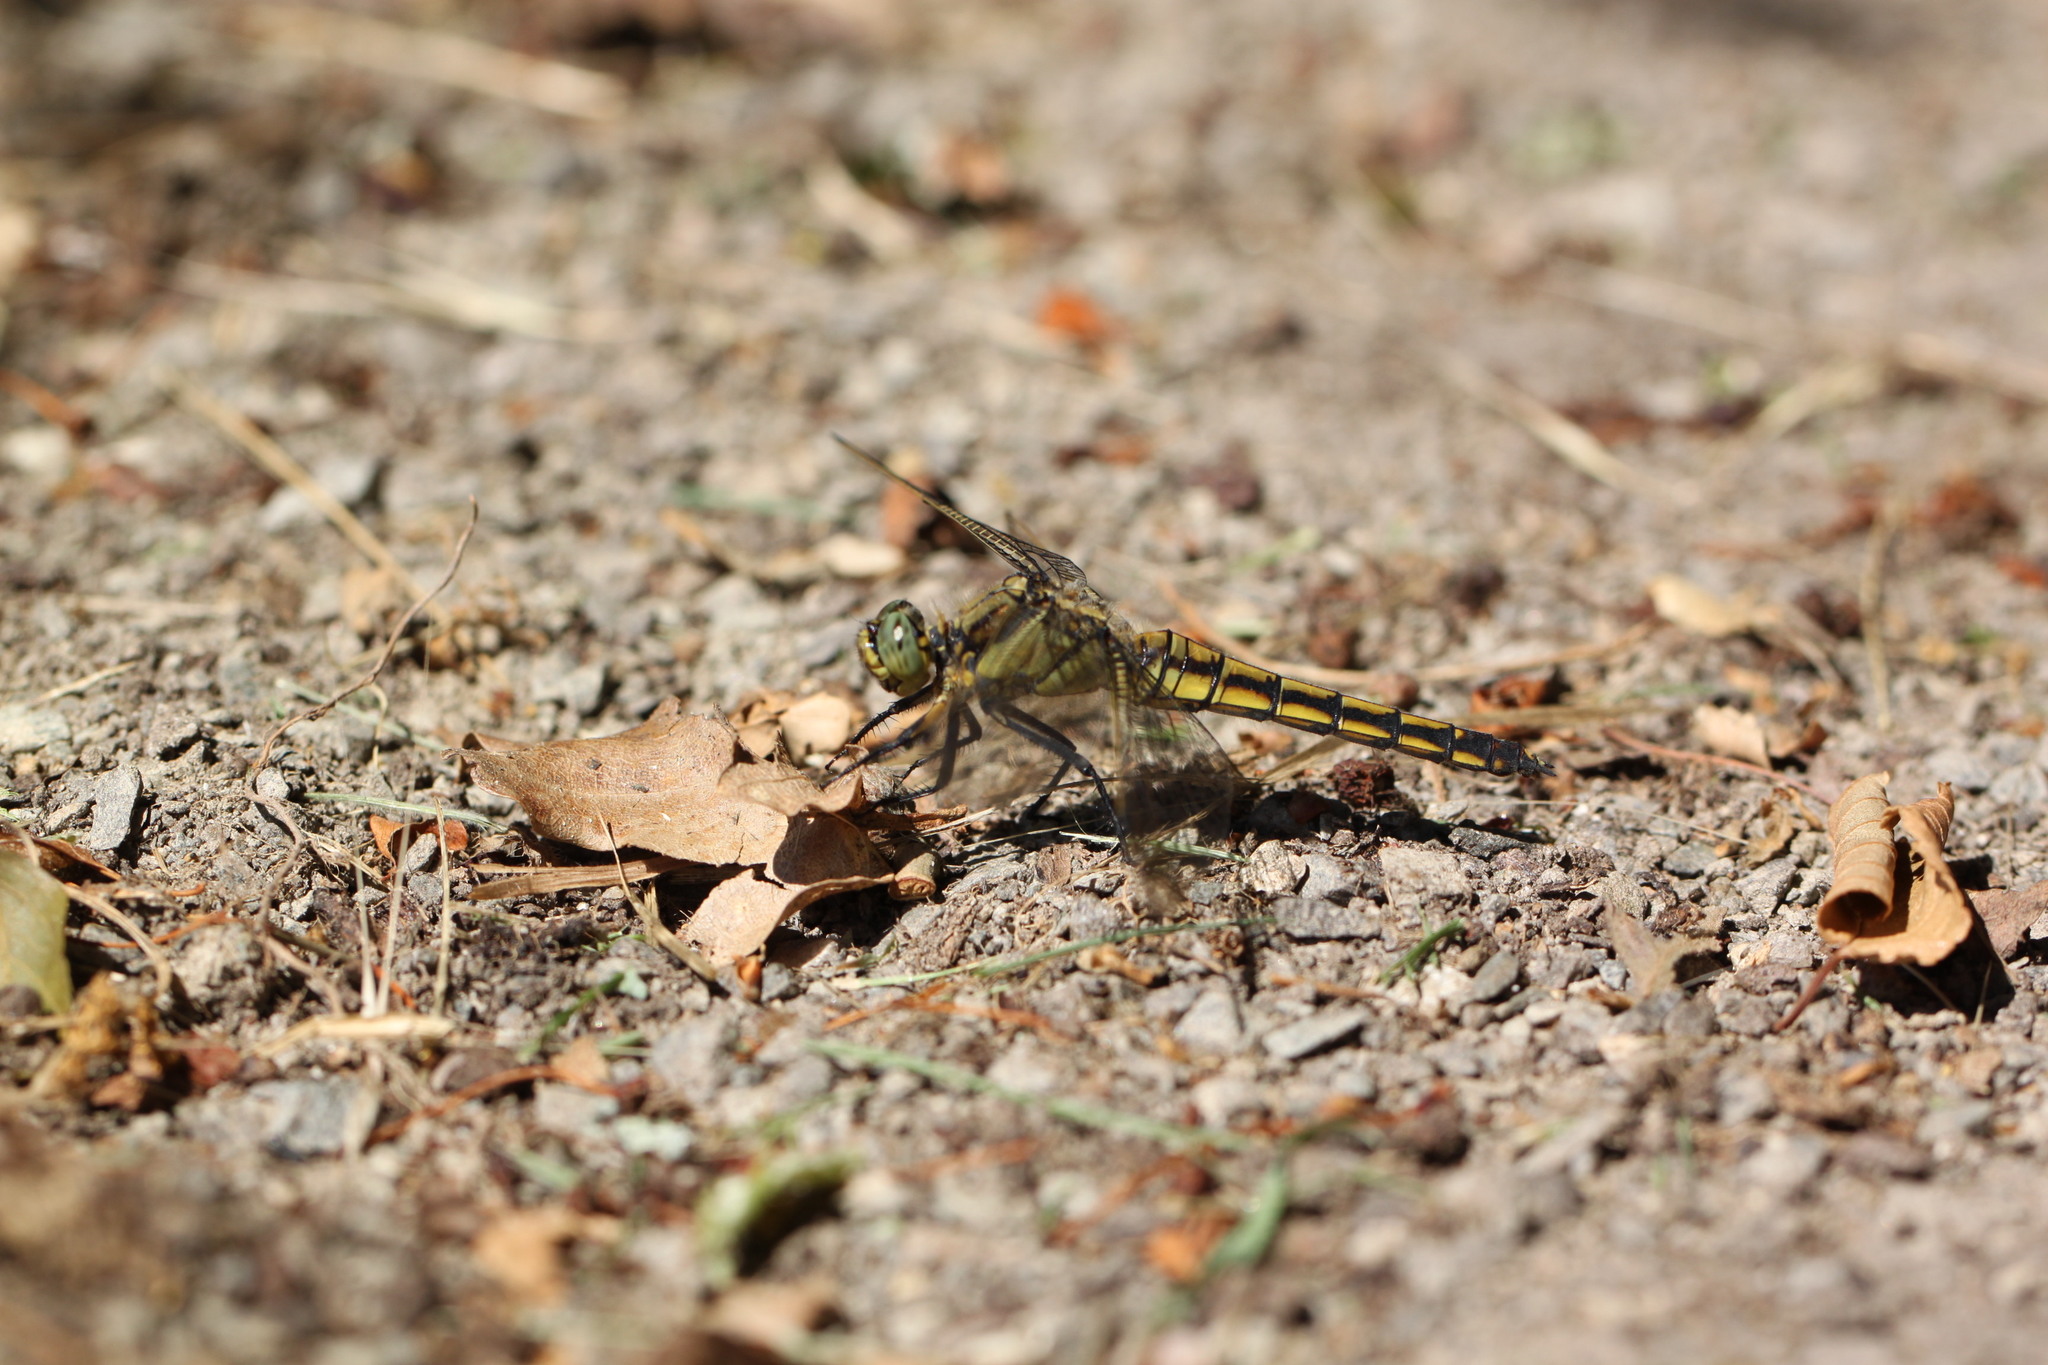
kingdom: Animalia
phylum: Arthropoda
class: Insecta
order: Odonata
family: Libellulidae
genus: Orthetrum
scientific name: Orthetrum cancellatum
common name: Black-tailed skimmer
